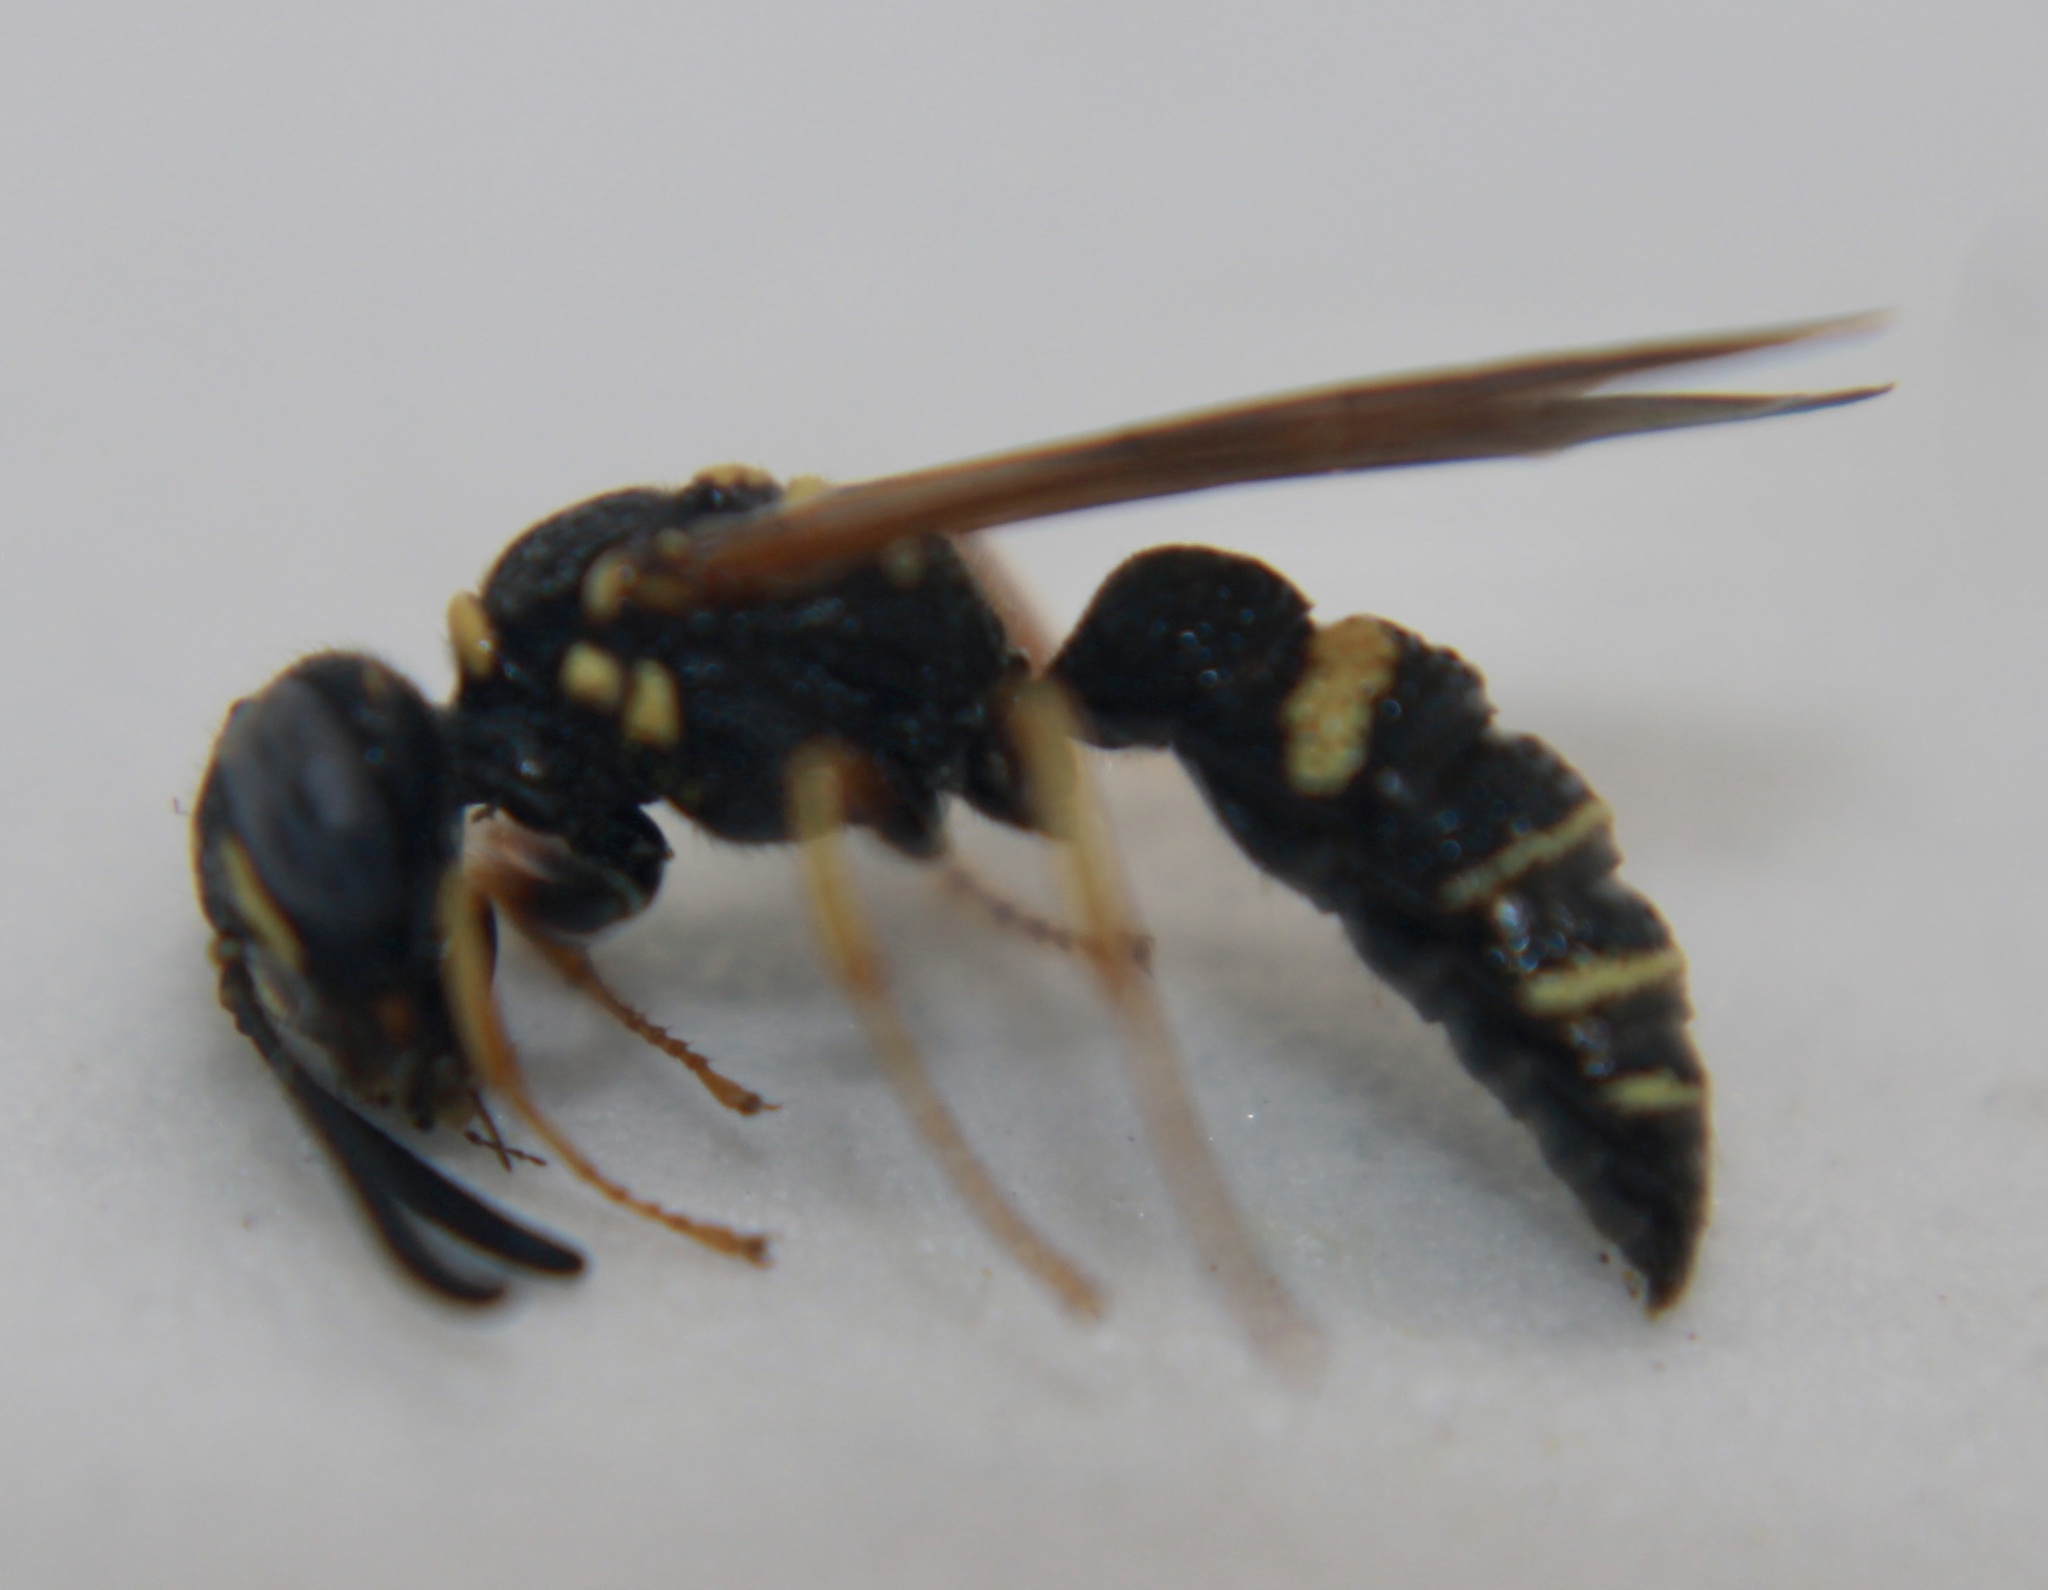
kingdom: Animalia
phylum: Arthropoda
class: Insecta
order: Hymenoptera
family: Crabronidae
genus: Philanthus
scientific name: Philanthus gibbosus
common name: Humped beewolf
